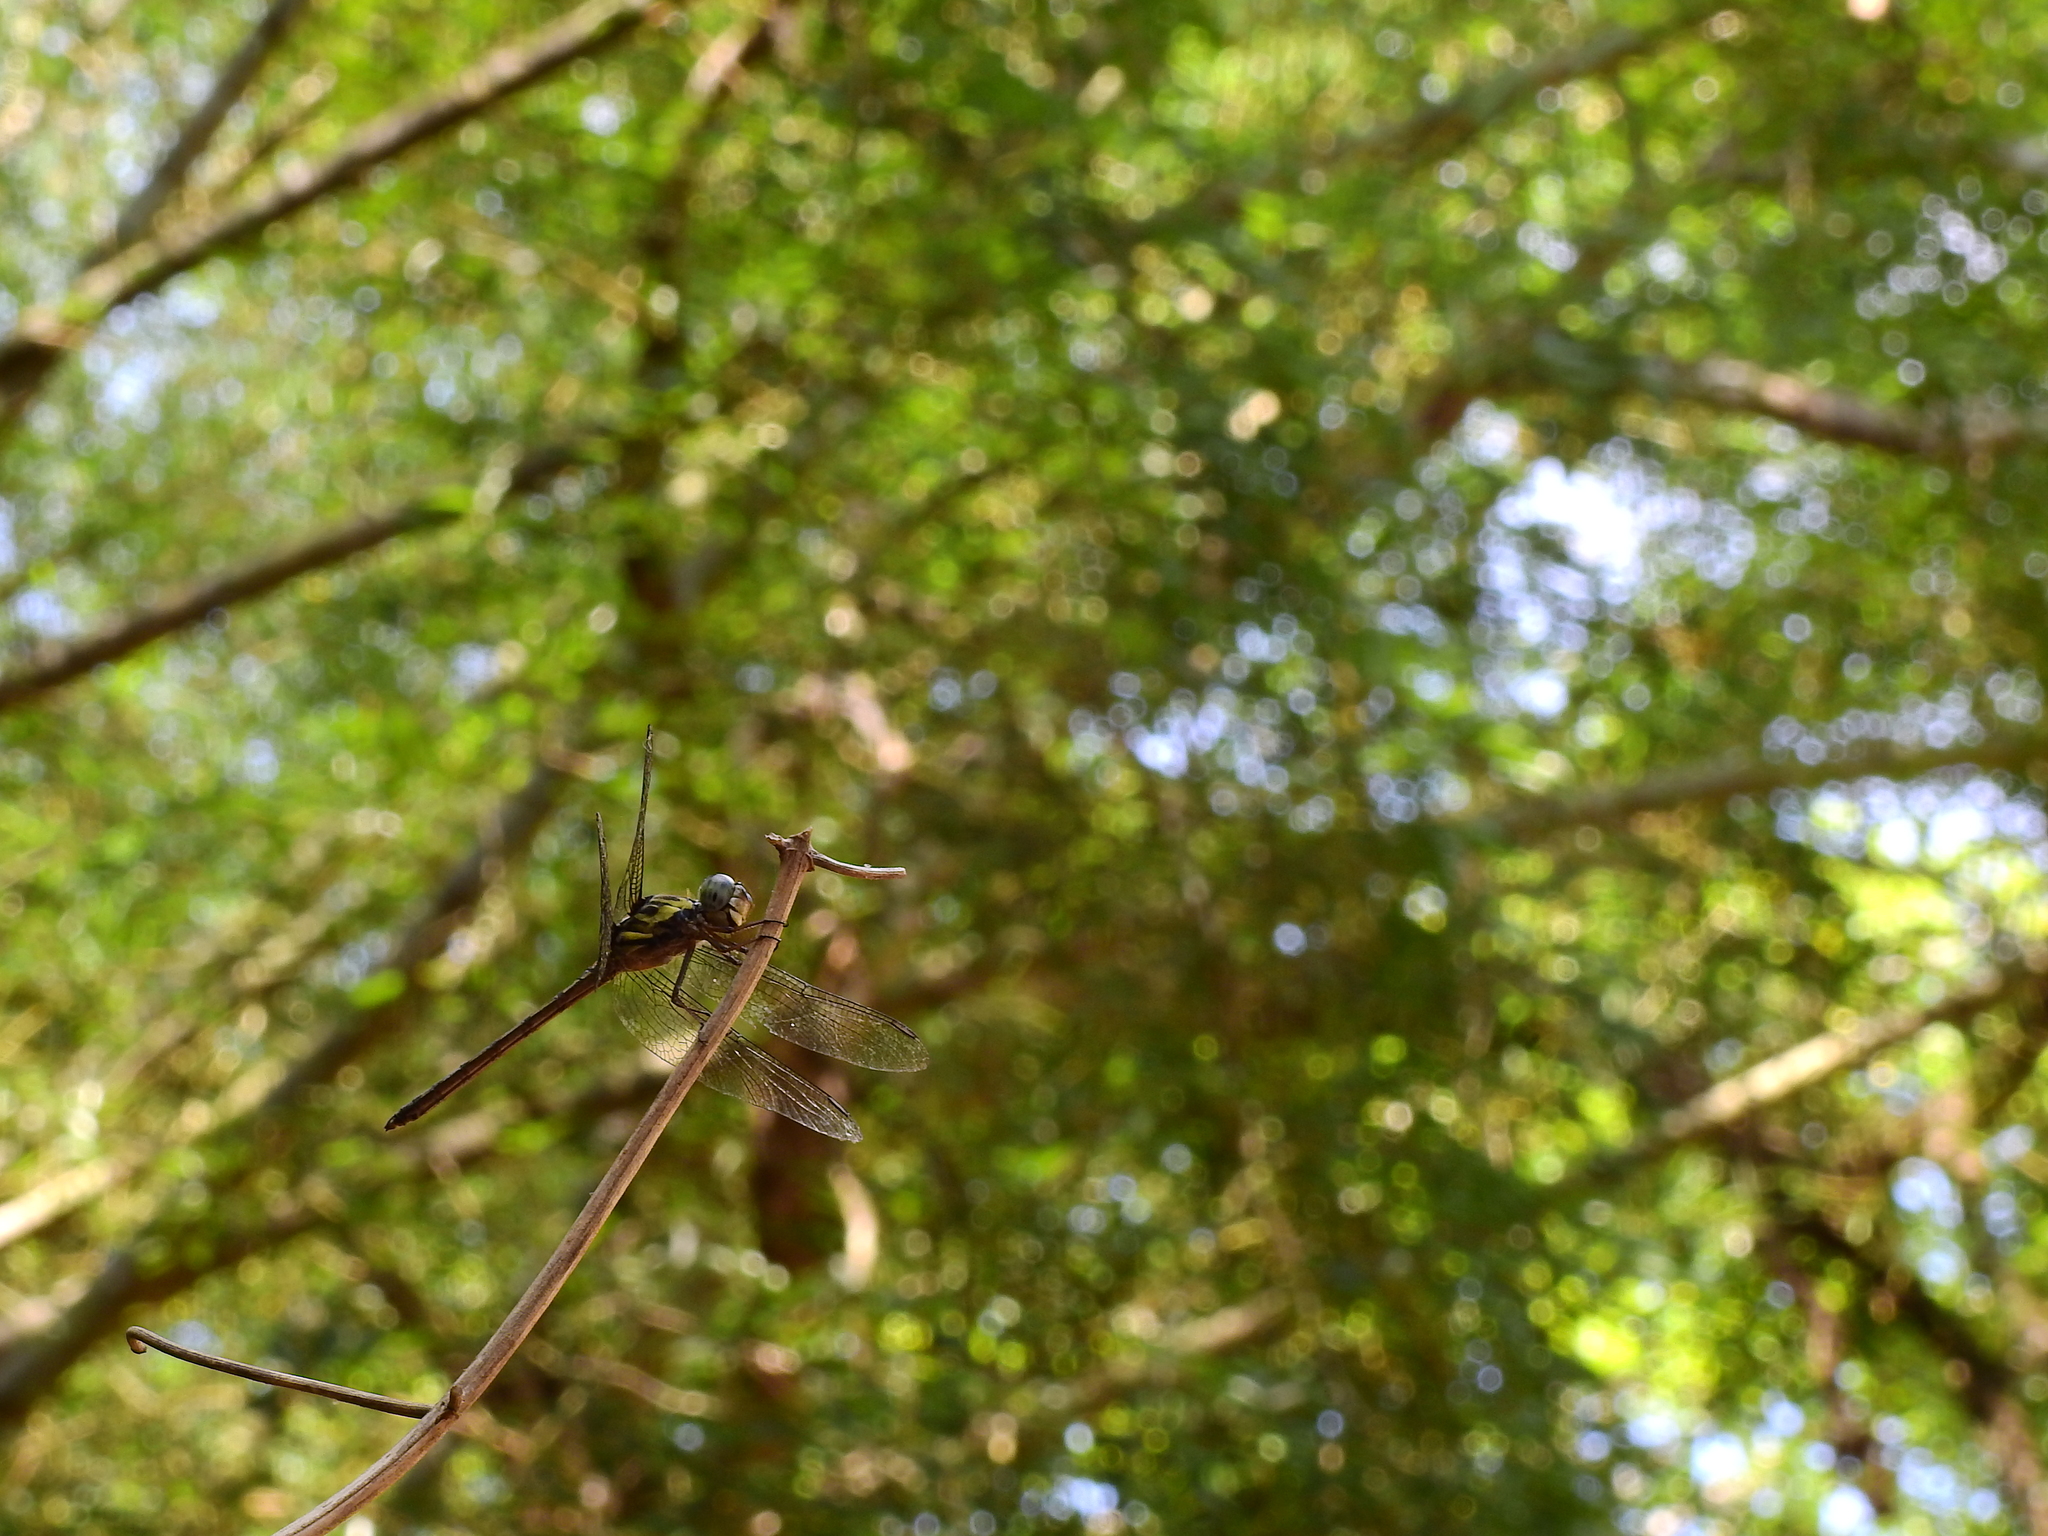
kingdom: Animalia
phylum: Arthropoda
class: Insecta
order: Odonata
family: Libellulidae
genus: Cratilla
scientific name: Cratilla lineata
